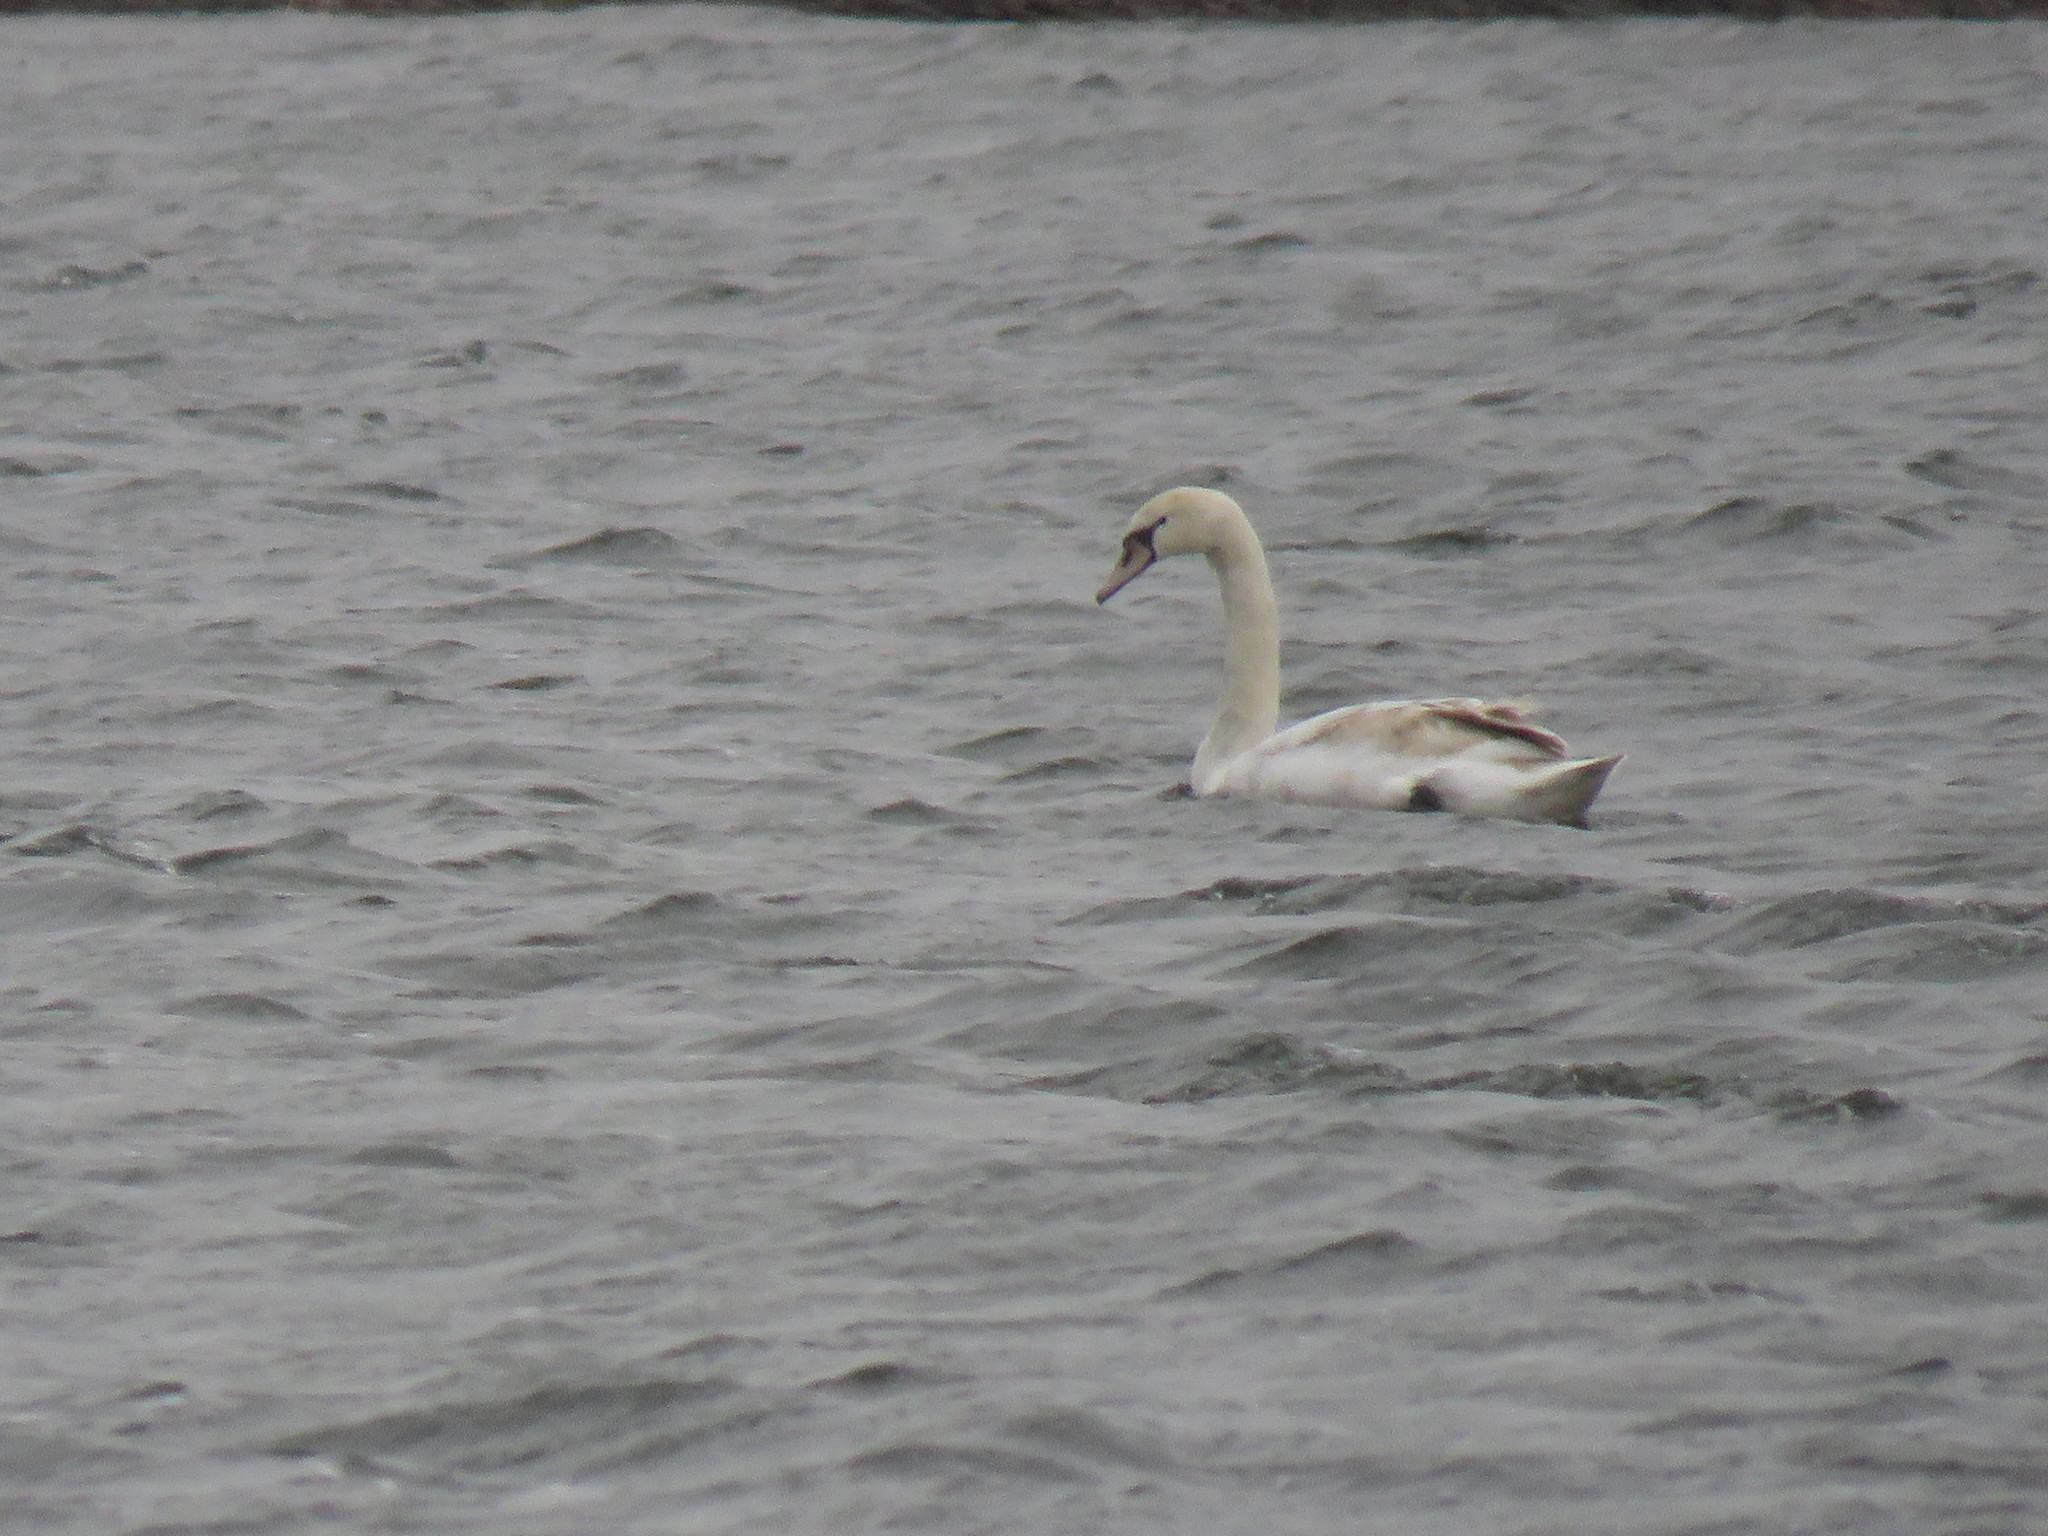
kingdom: Animalia
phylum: Chordata
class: Aves
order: Anseriformes
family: Anatidae
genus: Cygnus
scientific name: Cygnus olor
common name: Mute swan
